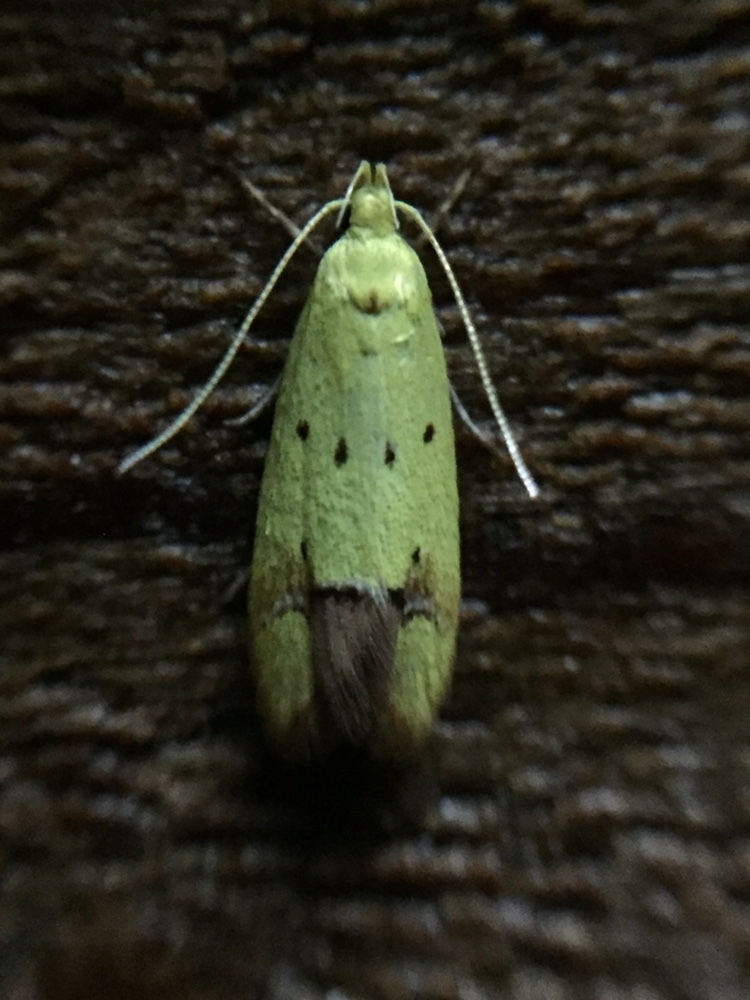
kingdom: Animalia
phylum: Arthropoda
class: Insecta
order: Lepidoptera
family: Oecophoridae
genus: Gymnobathra
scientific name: Gymnobathra flavidella
